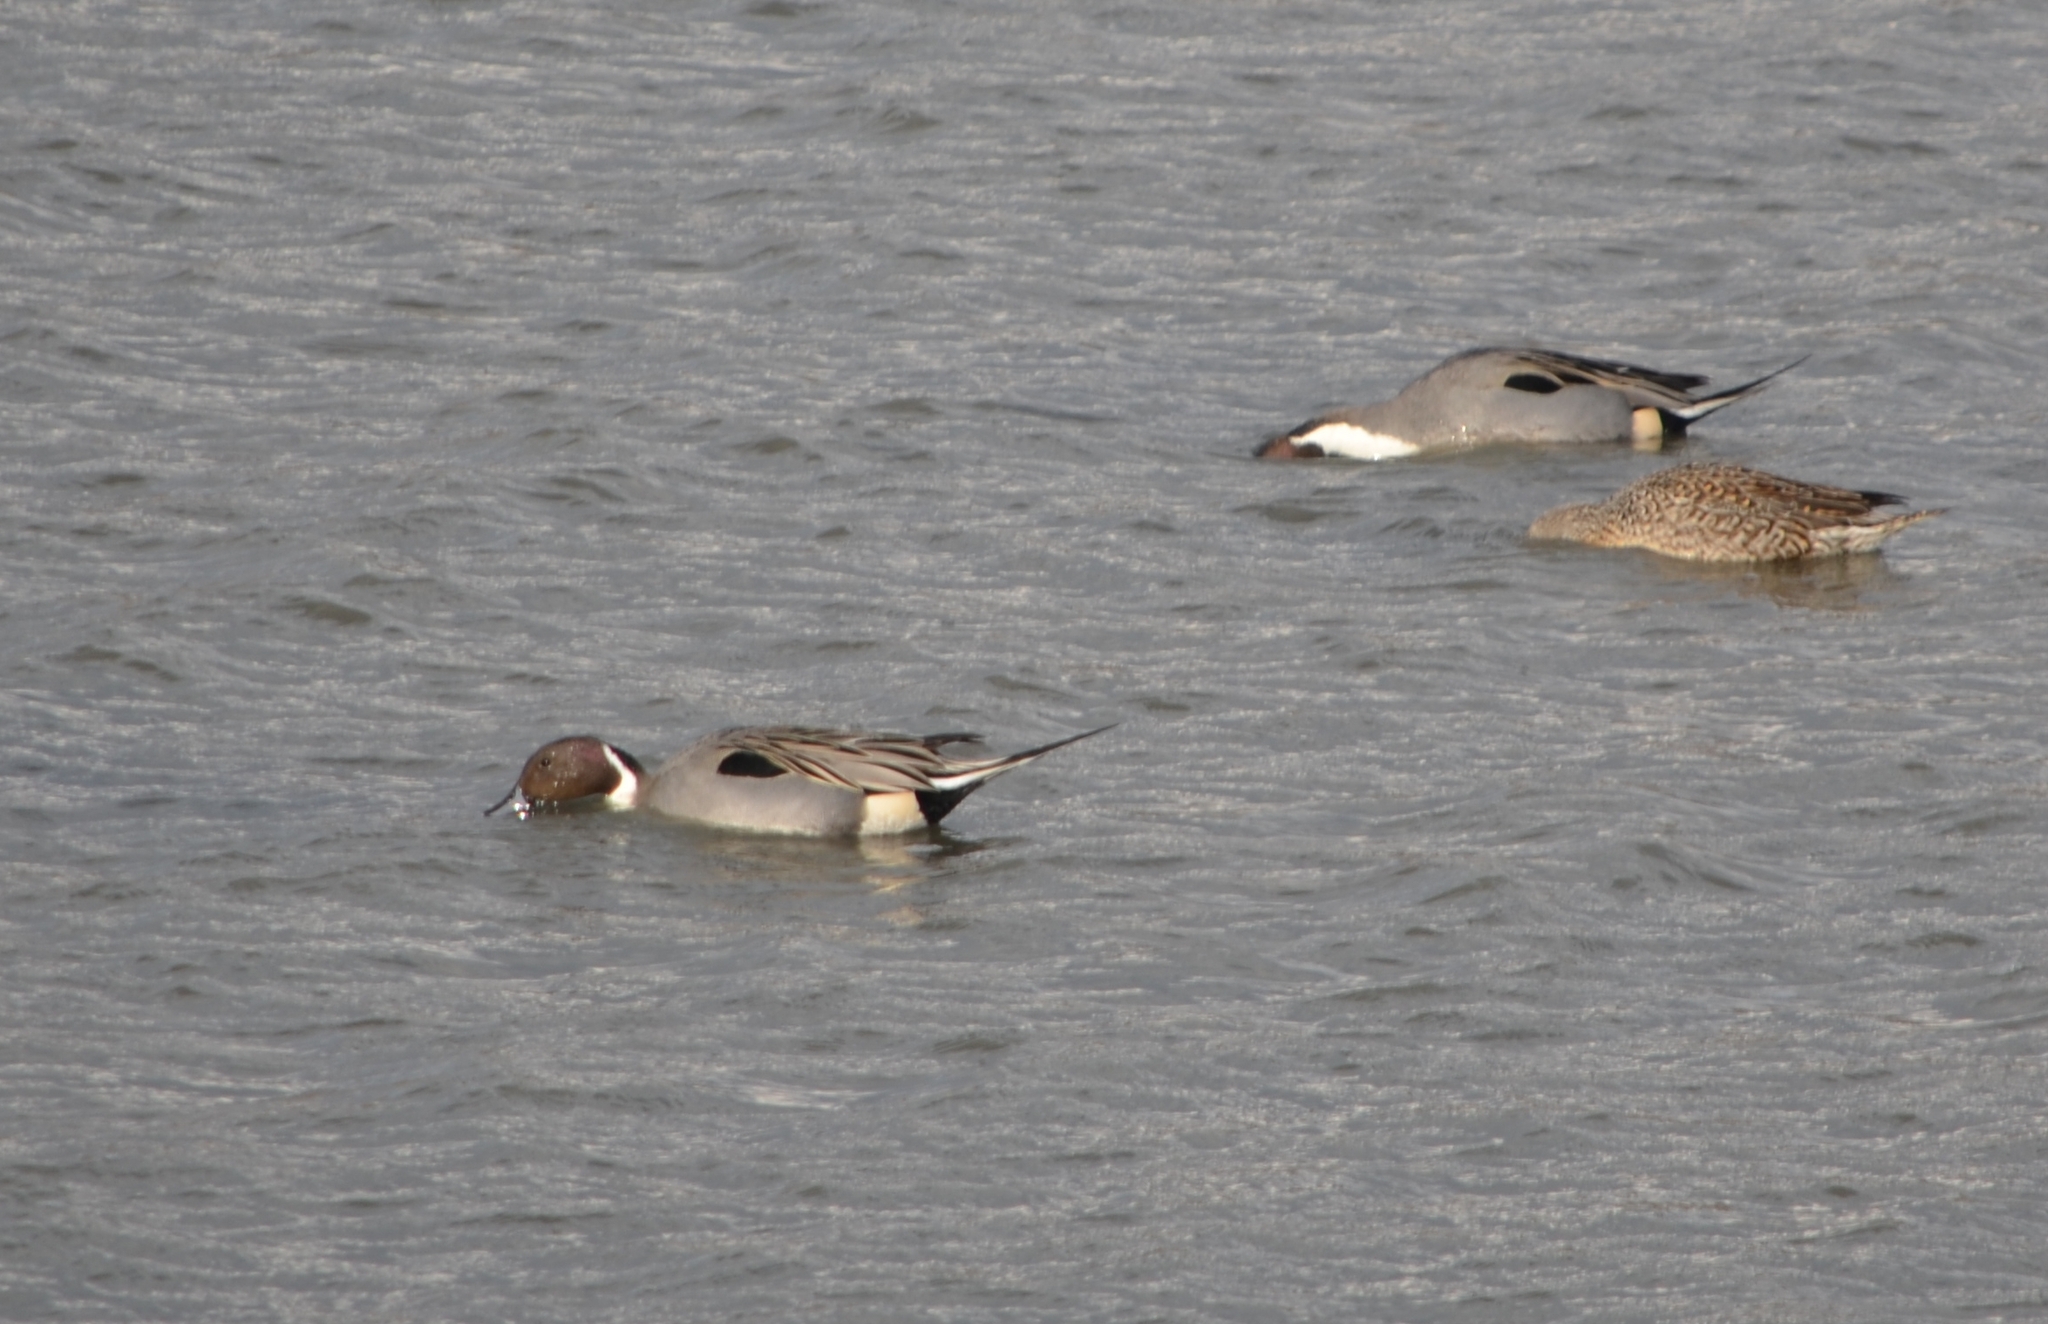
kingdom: Animalia
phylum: Chordata
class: Aves
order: Anseriformes
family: Anatidae
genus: Anas
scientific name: Anas acuta
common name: Northern pintail
